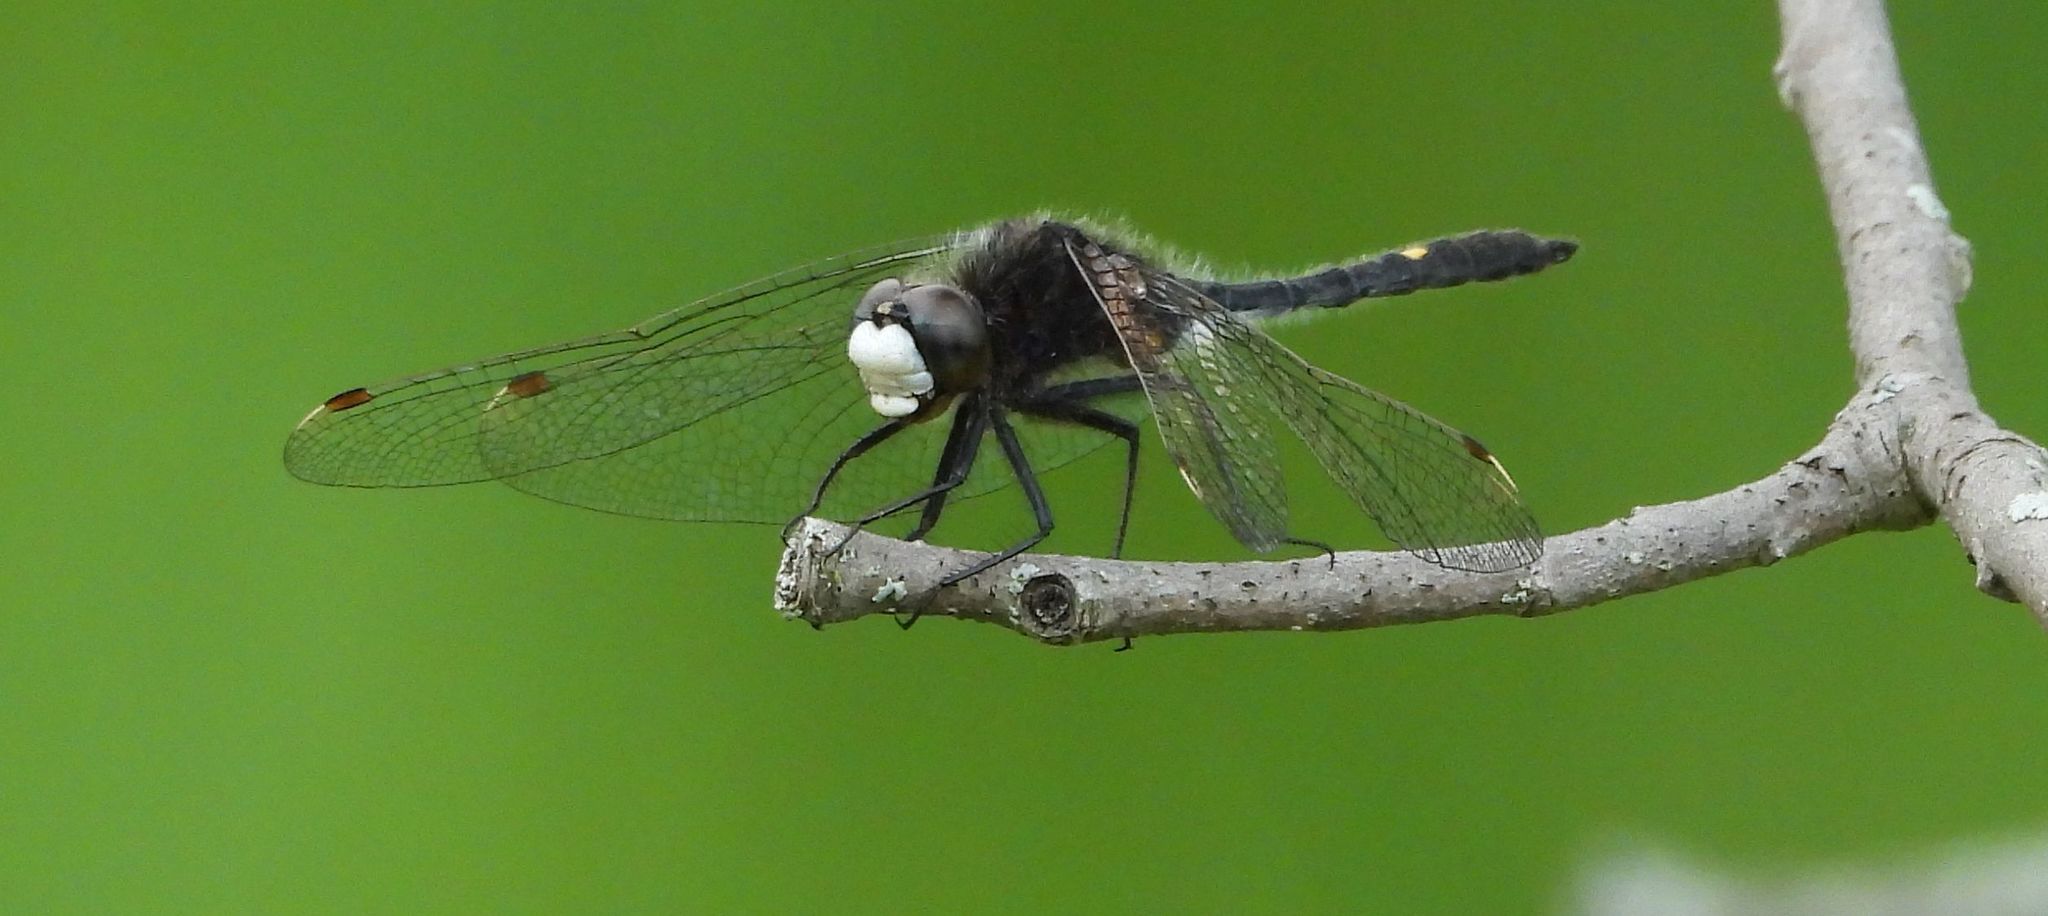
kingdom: Animalia
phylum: Arthropoda
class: Insecta
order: Odonata
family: Libellulidae
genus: Leucorrhinia
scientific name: Leucorrhinia intacta
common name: Dot-tailed whiteface
